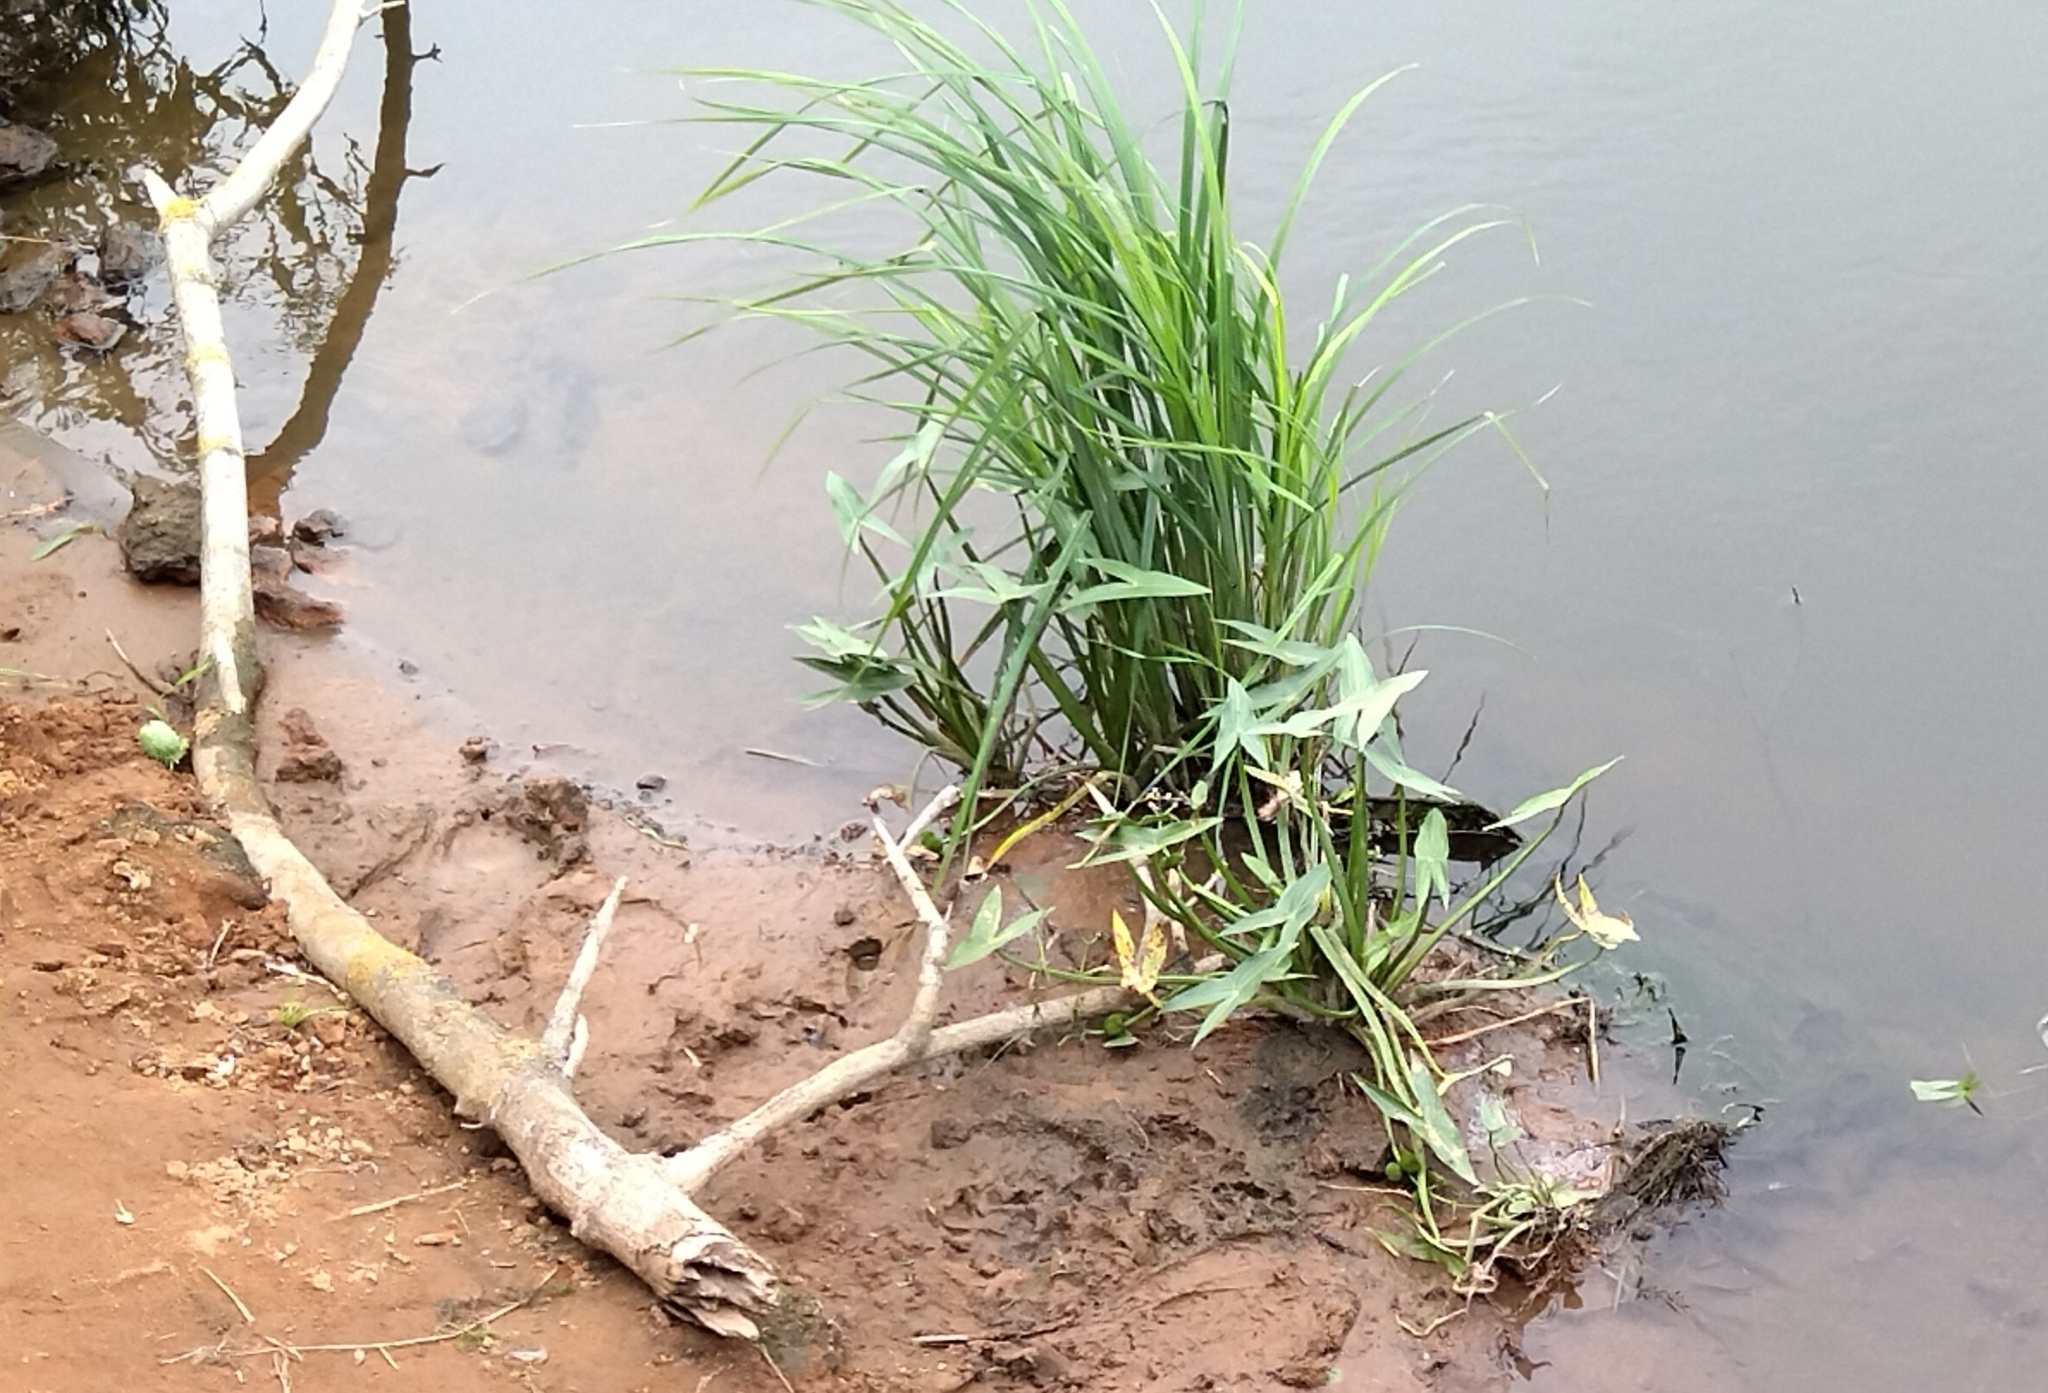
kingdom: Plantae
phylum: Tracheophyta
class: Liliopsida
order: Alismatales
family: Alismataceae
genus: Sagittaria
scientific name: Sagittaria sagittifolia
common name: Arrowhead
